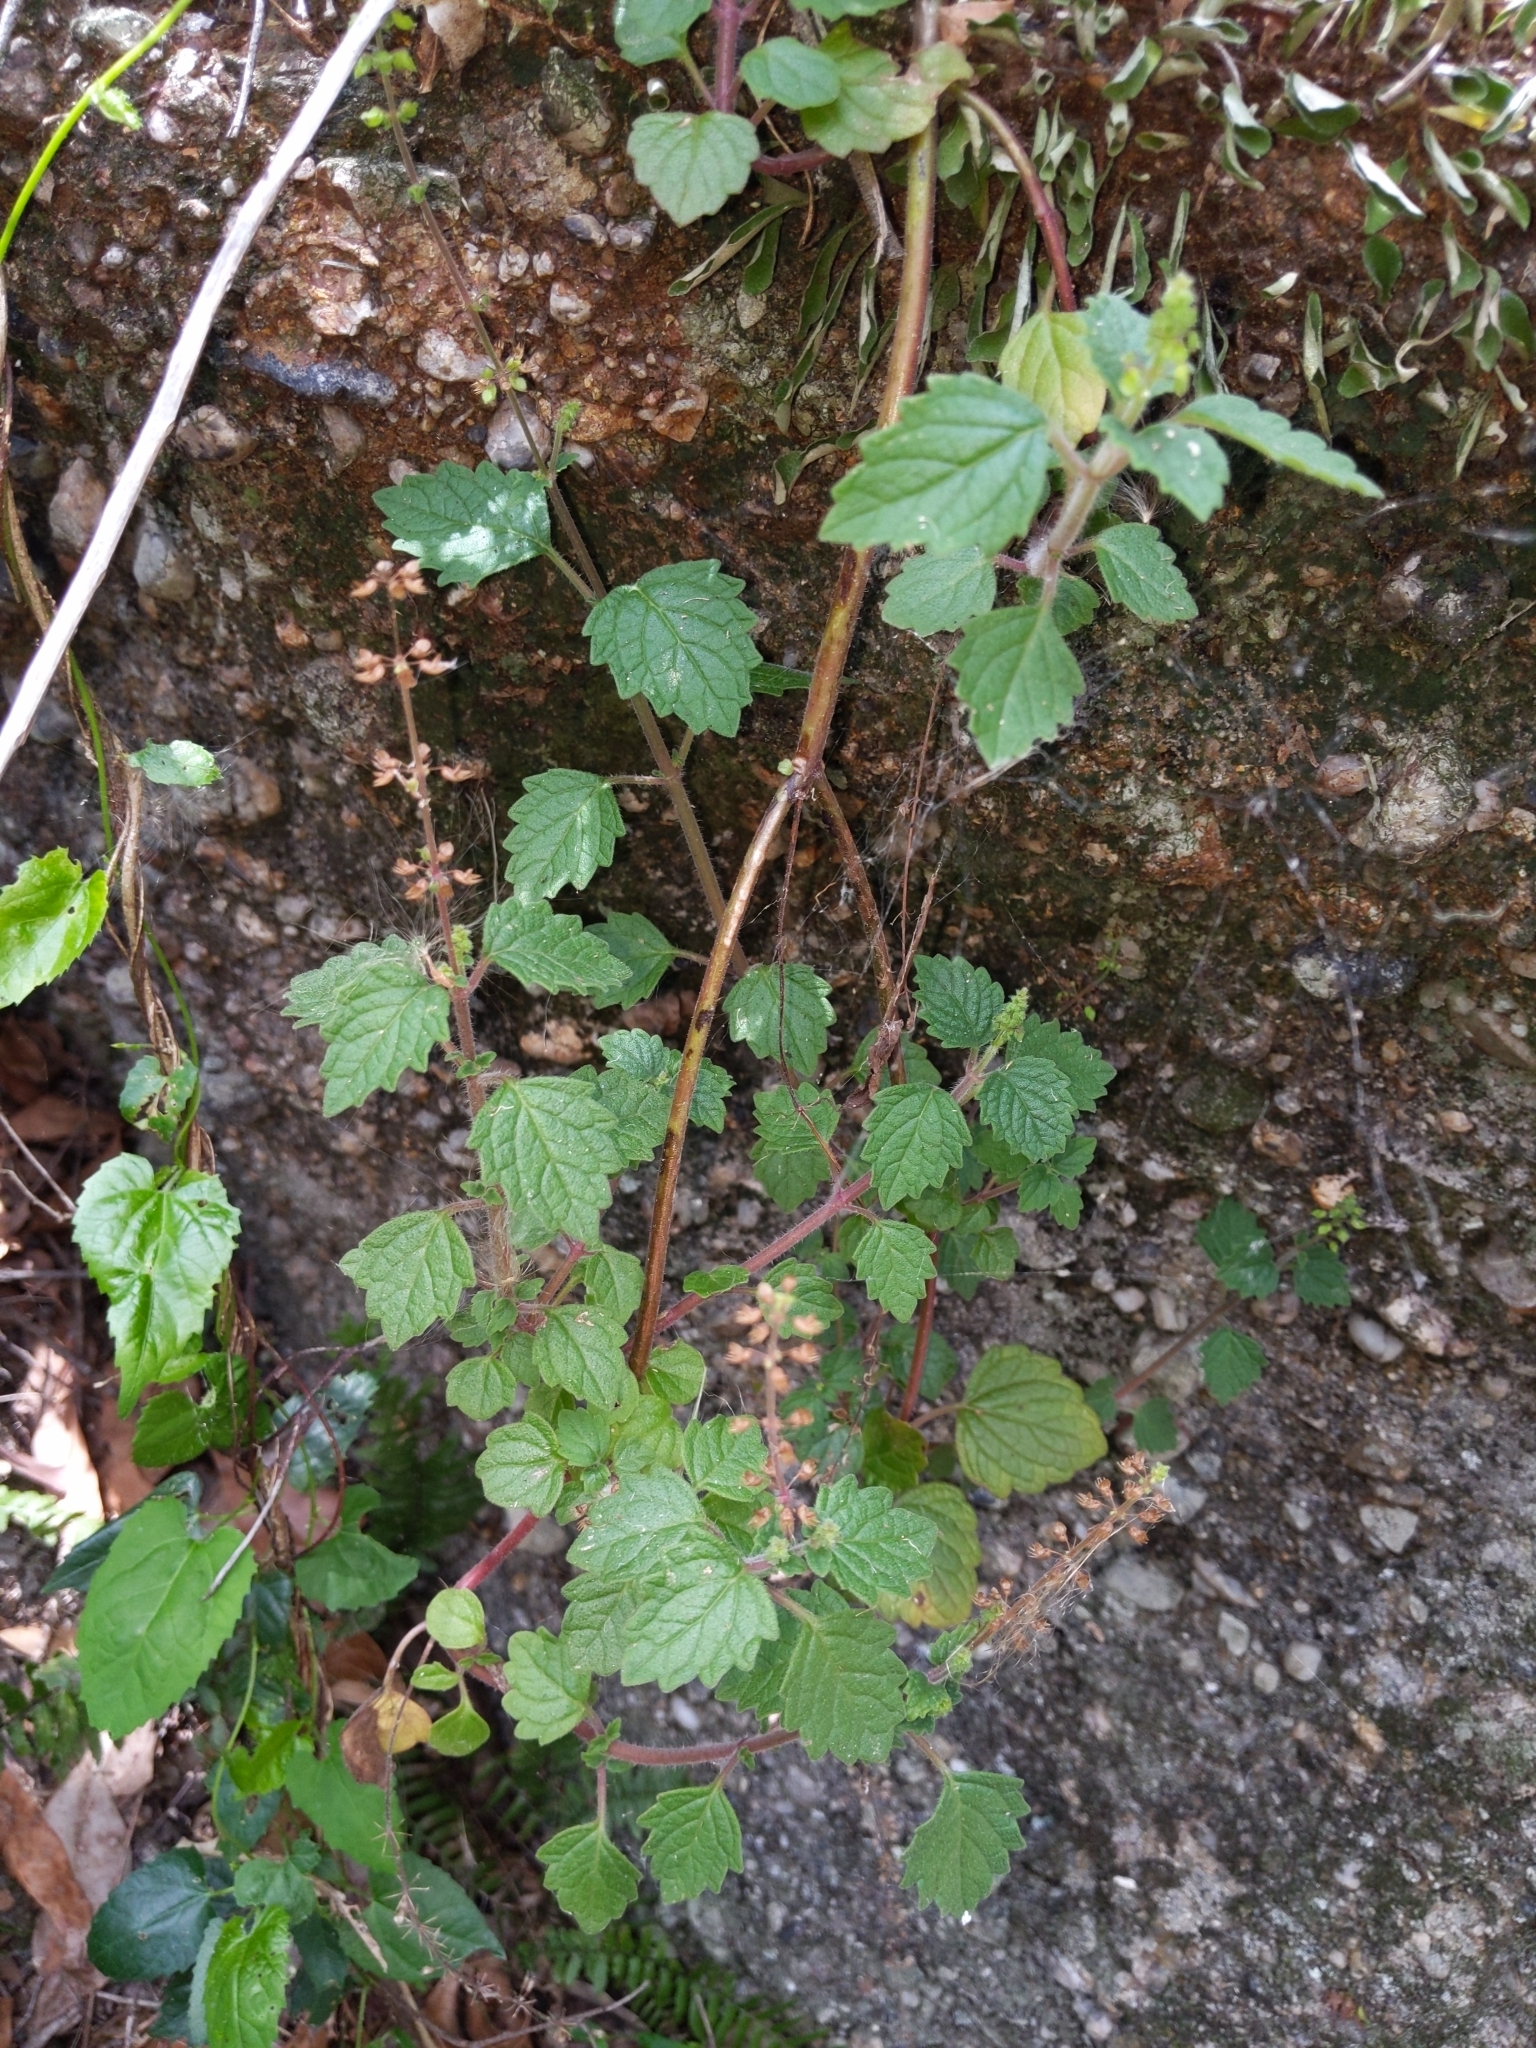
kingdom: Plantae
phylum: Tracheophyta
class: Magnoliopsida
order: Lamiales
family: Lamiaceae
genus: Coleus
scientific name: Coleus australis
